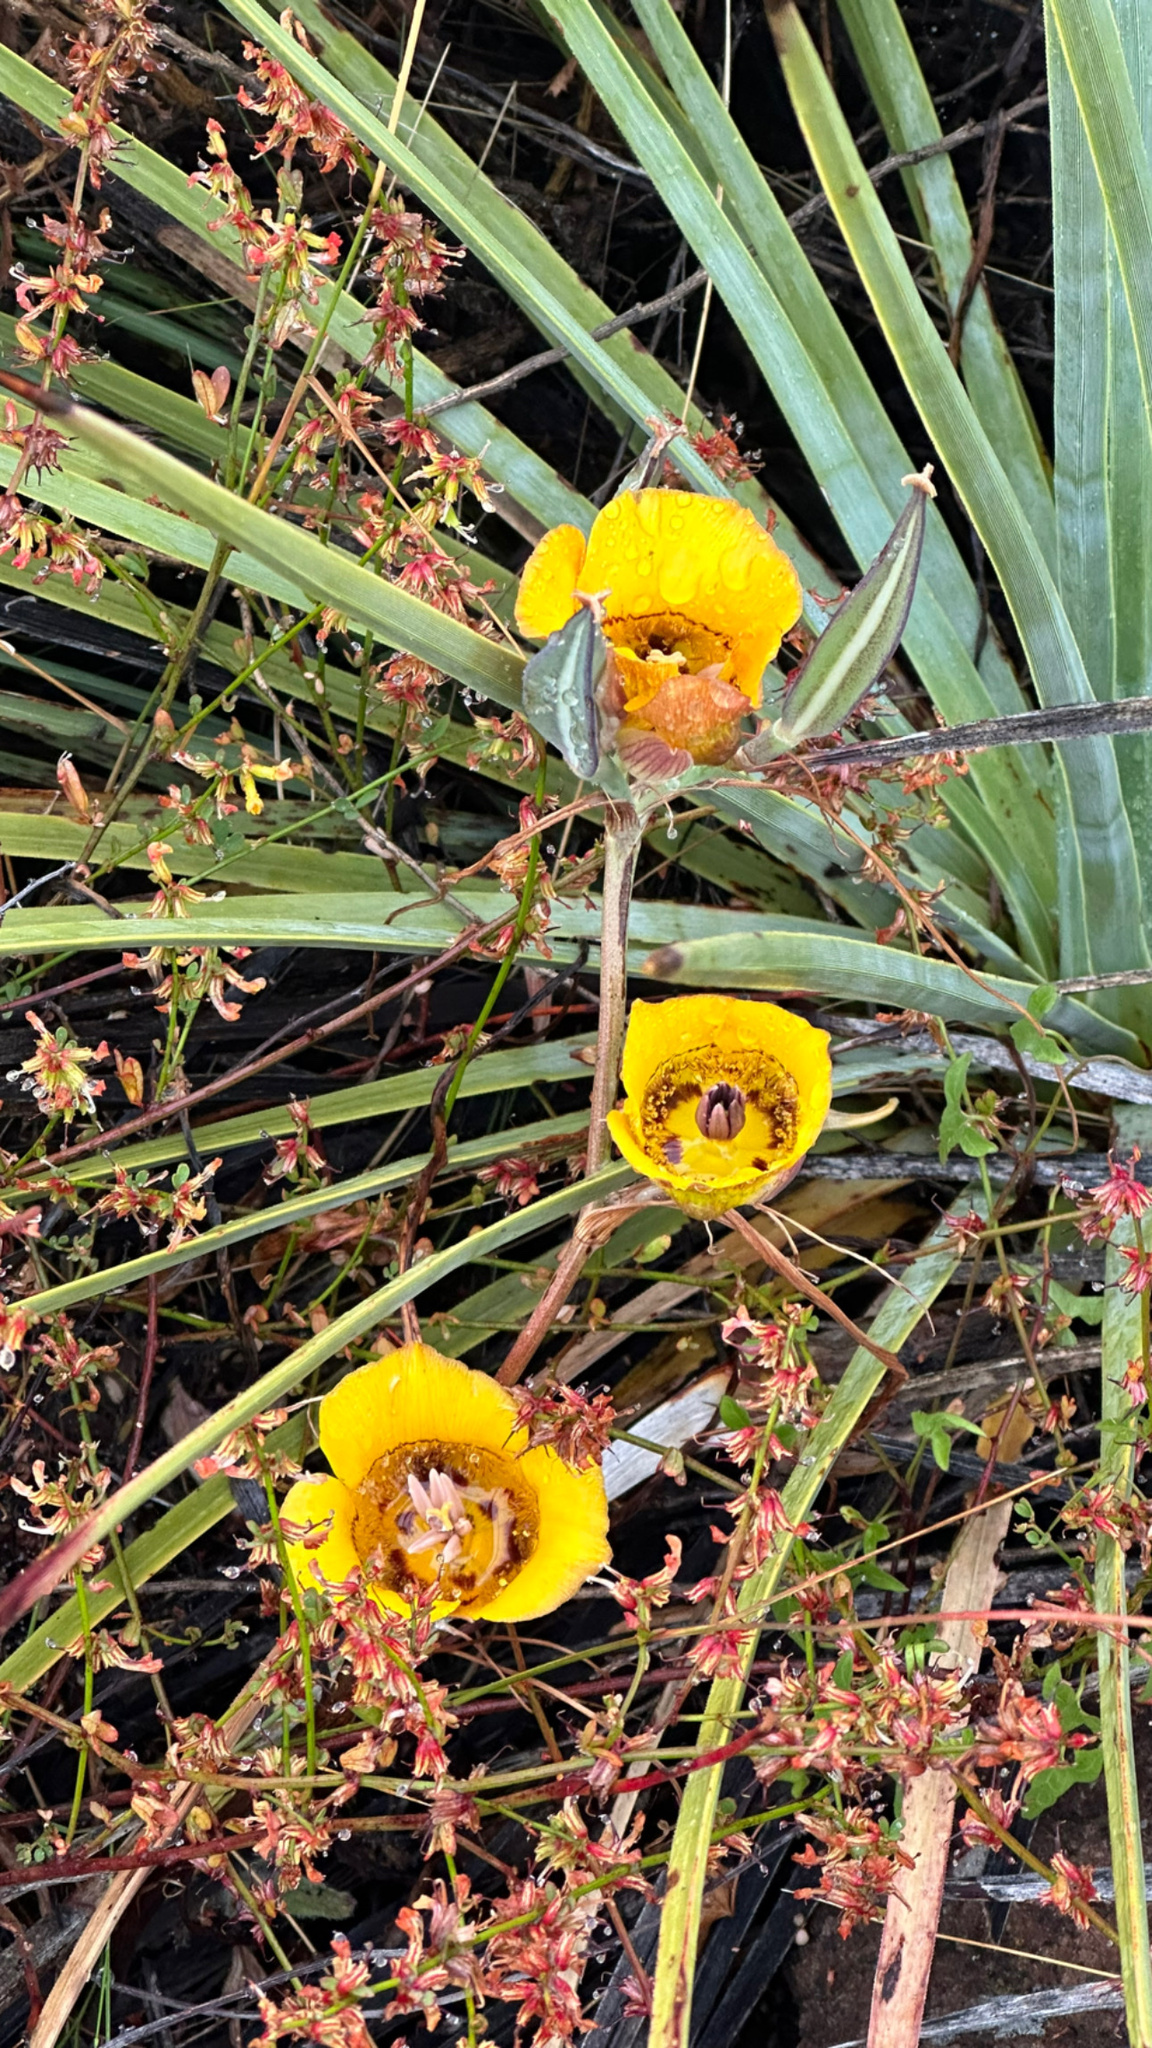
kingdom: Plantae
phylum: Tracheophyta
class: Liliopsida
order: Liliales
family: Liliaceae
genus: Calochortus
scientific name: Calochortus clavatus
